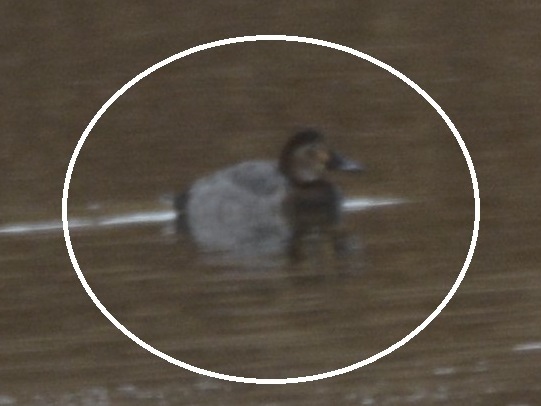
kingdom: Animalia
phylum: Chordata
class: Aves
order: Anseriformes
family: Anatidae
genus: Aythya
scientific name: Aythya ferina
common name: Common pochard
